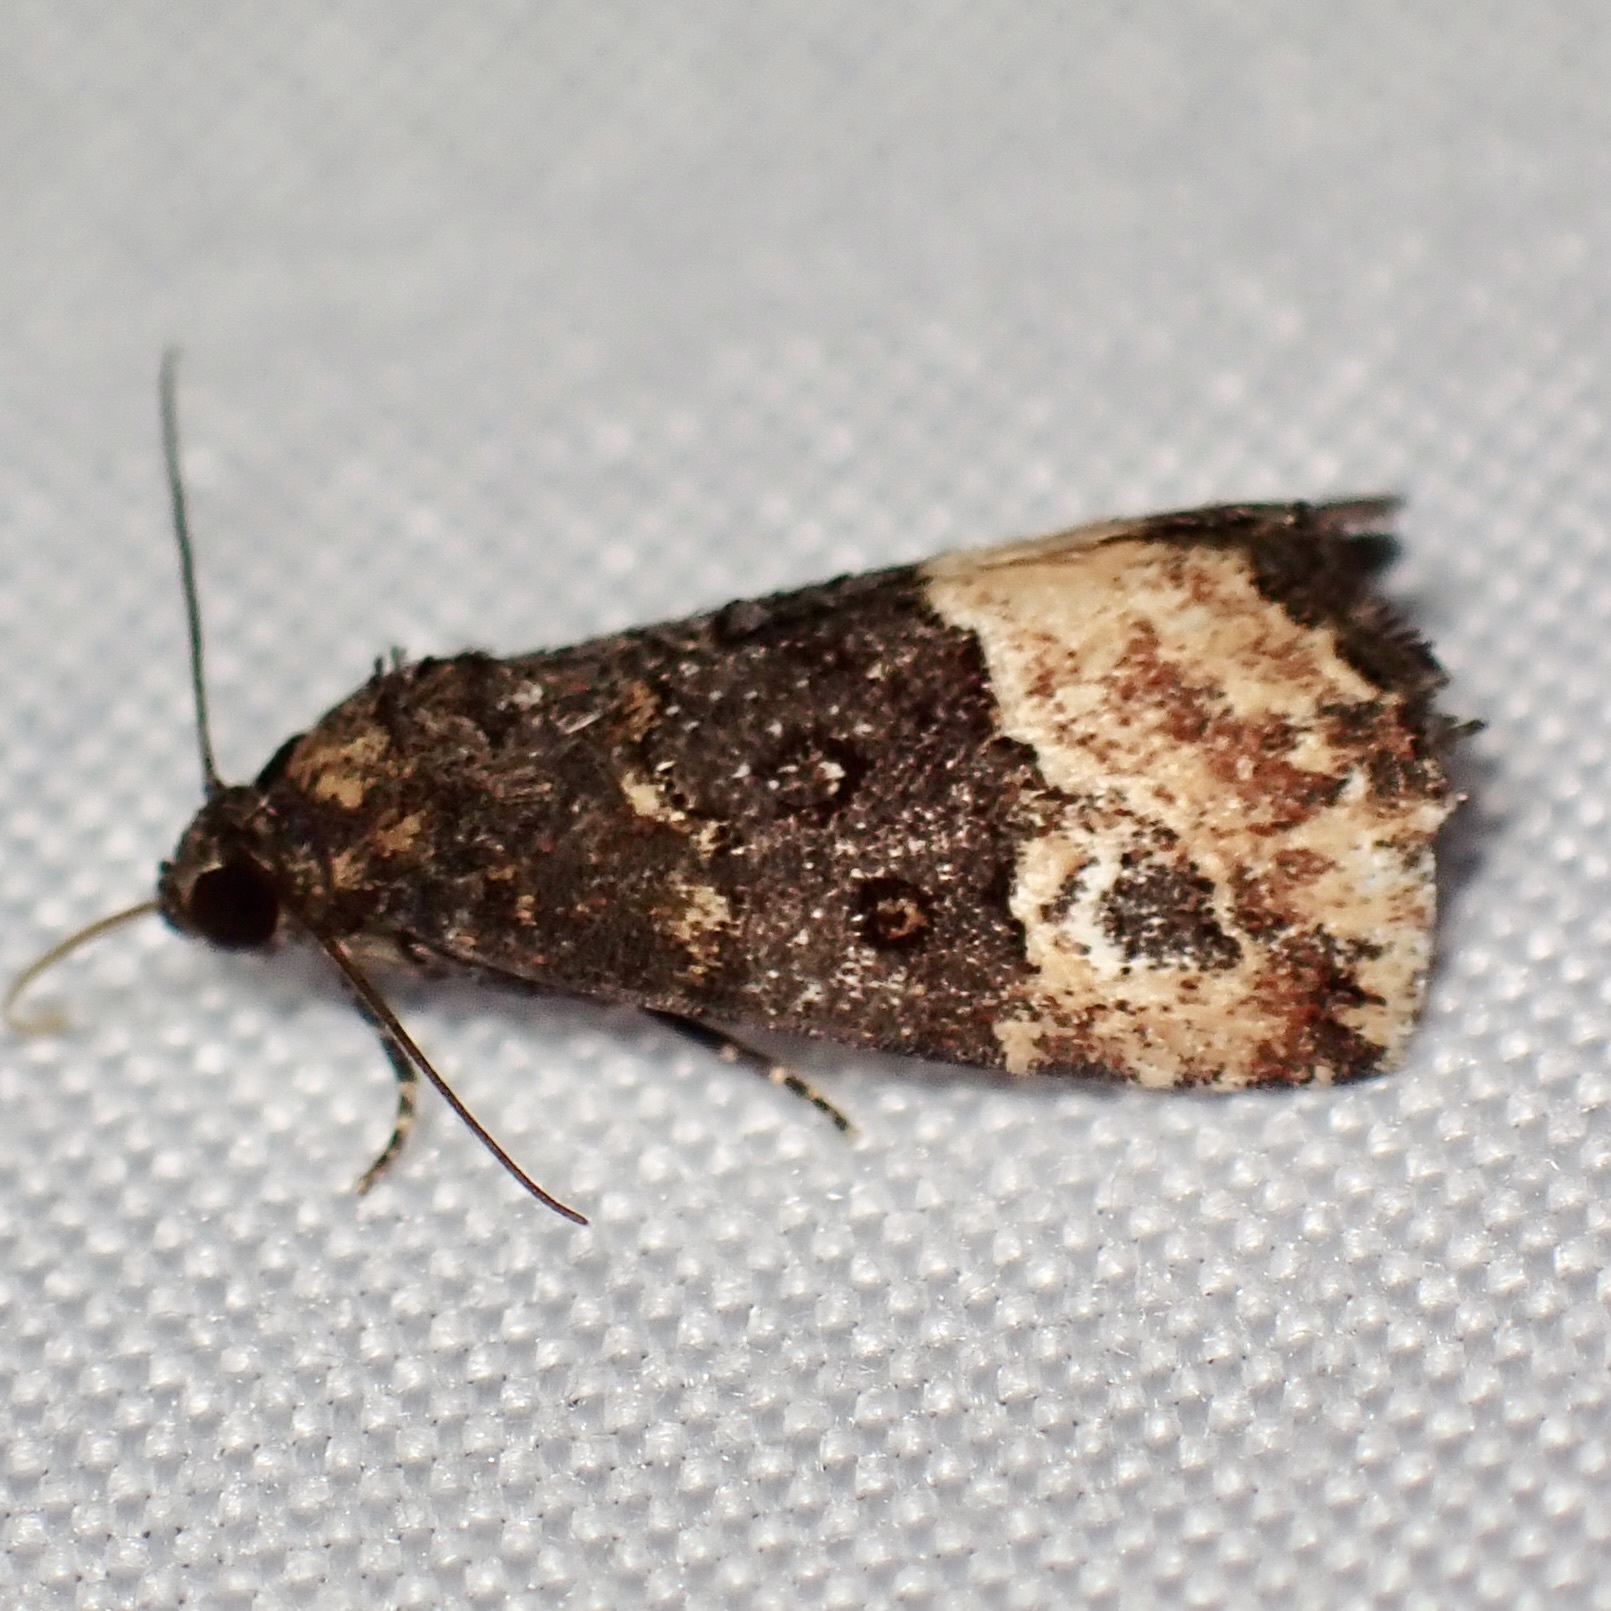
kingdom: Animalia
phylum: Arthropoda
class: Insecta
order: Lepidoptera
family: Noctuidae
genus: Ozarba
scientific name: Ozarba propera
